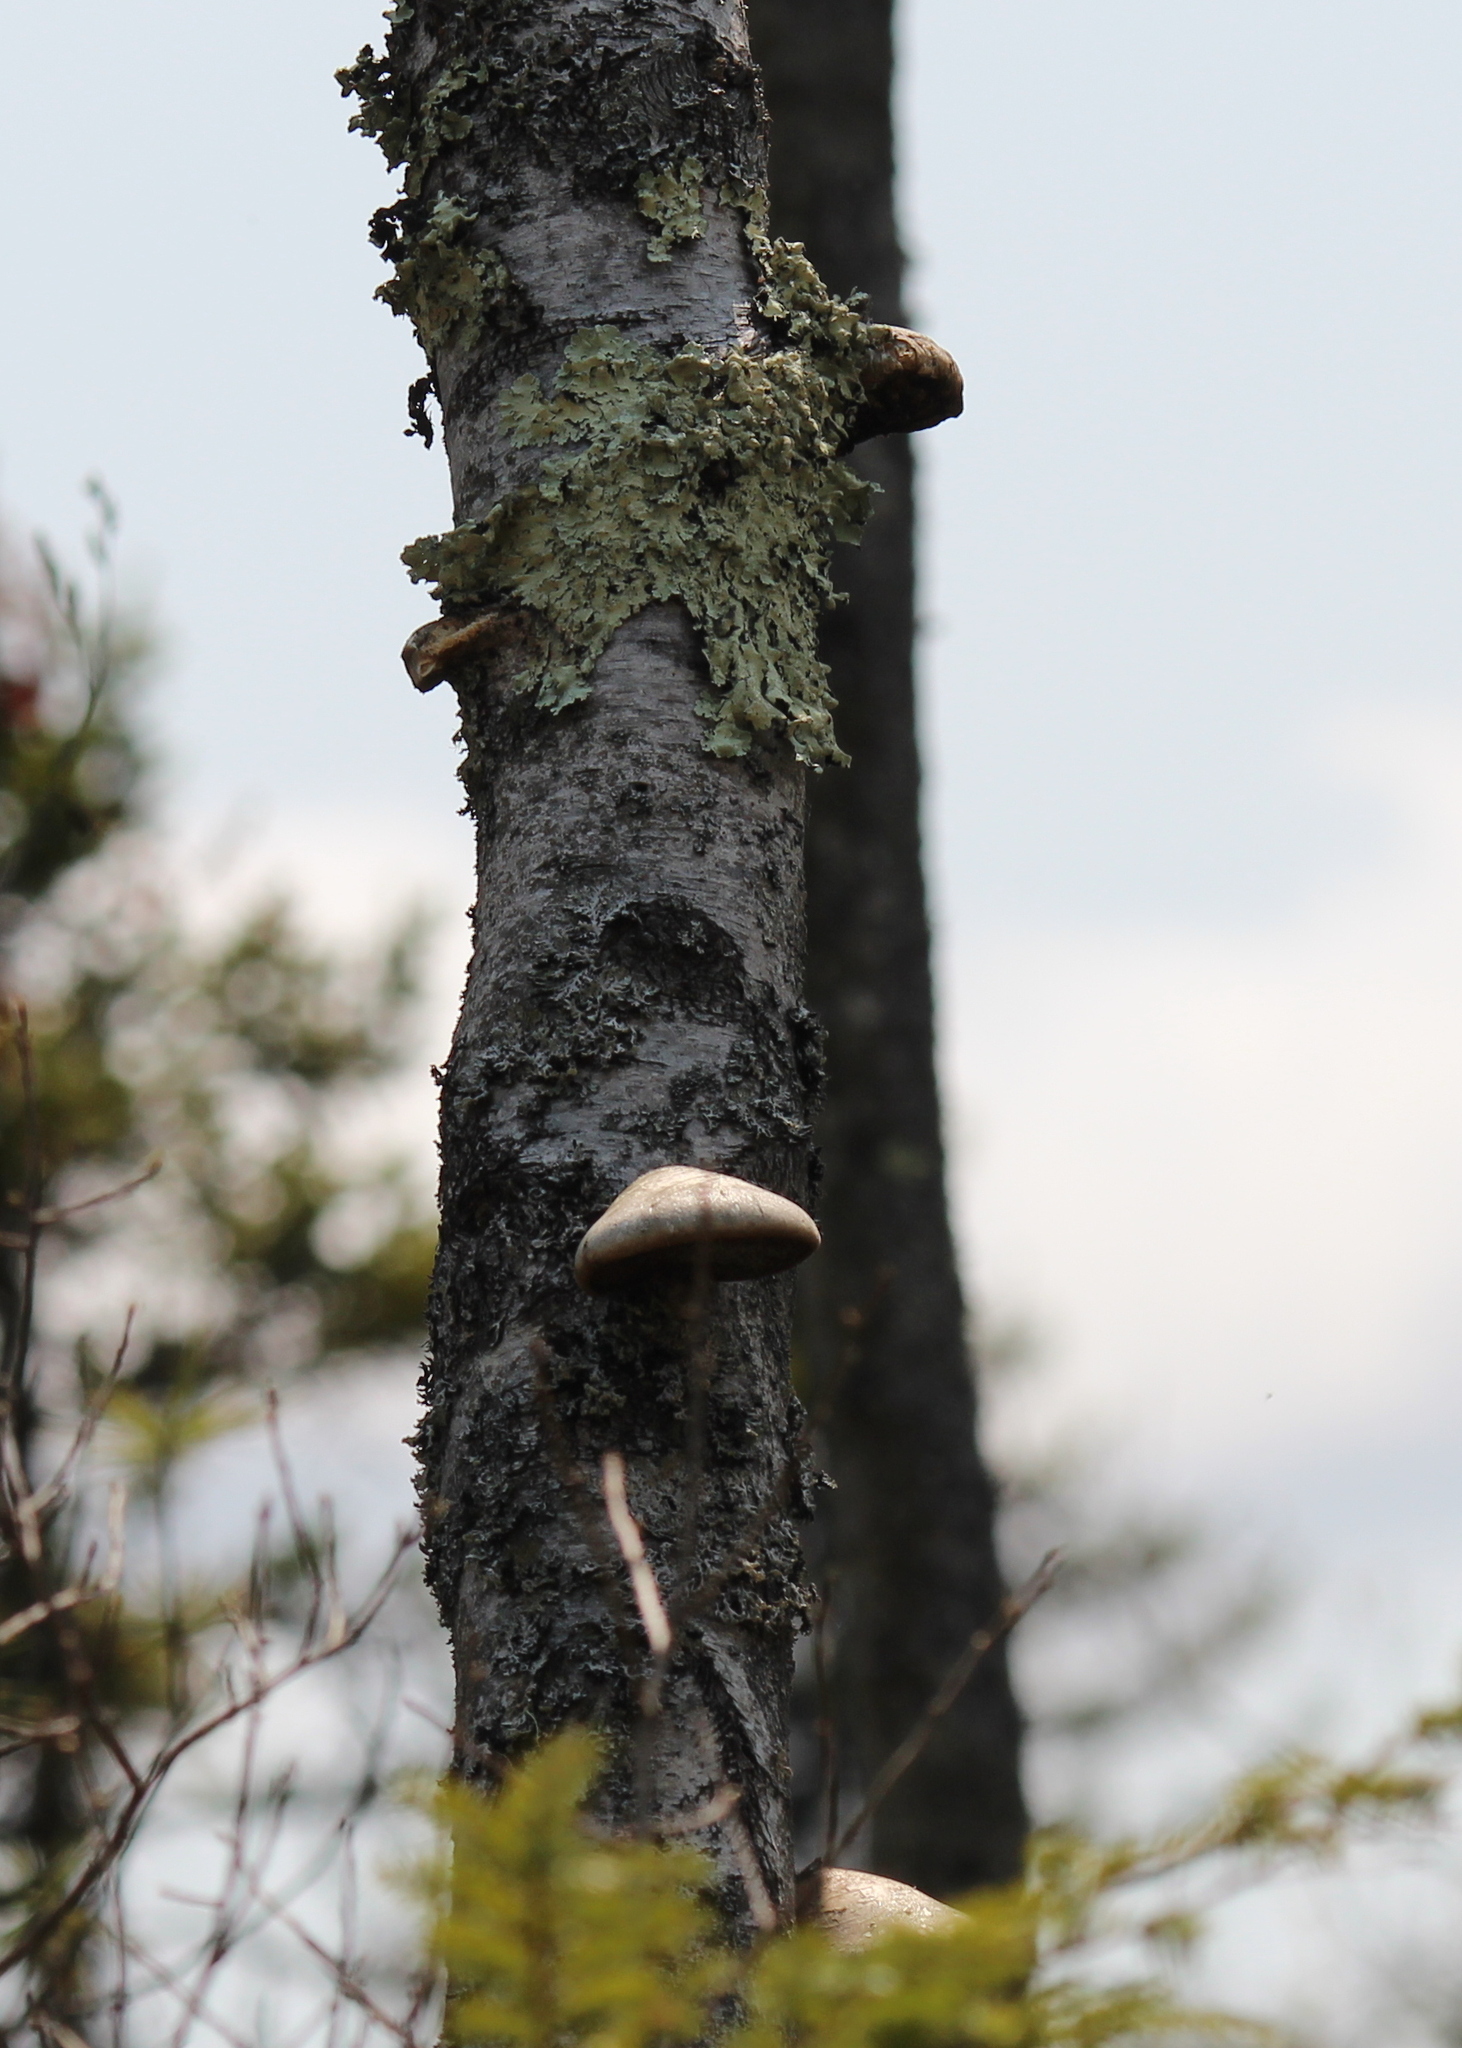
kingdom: Fungi
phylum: Basidiomycota
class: Agaricomycetes
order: Polyporales
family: Fomitopsidaceae
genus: Fomitopsis
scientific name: Fomitopsis betulina
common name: Birch polypore
